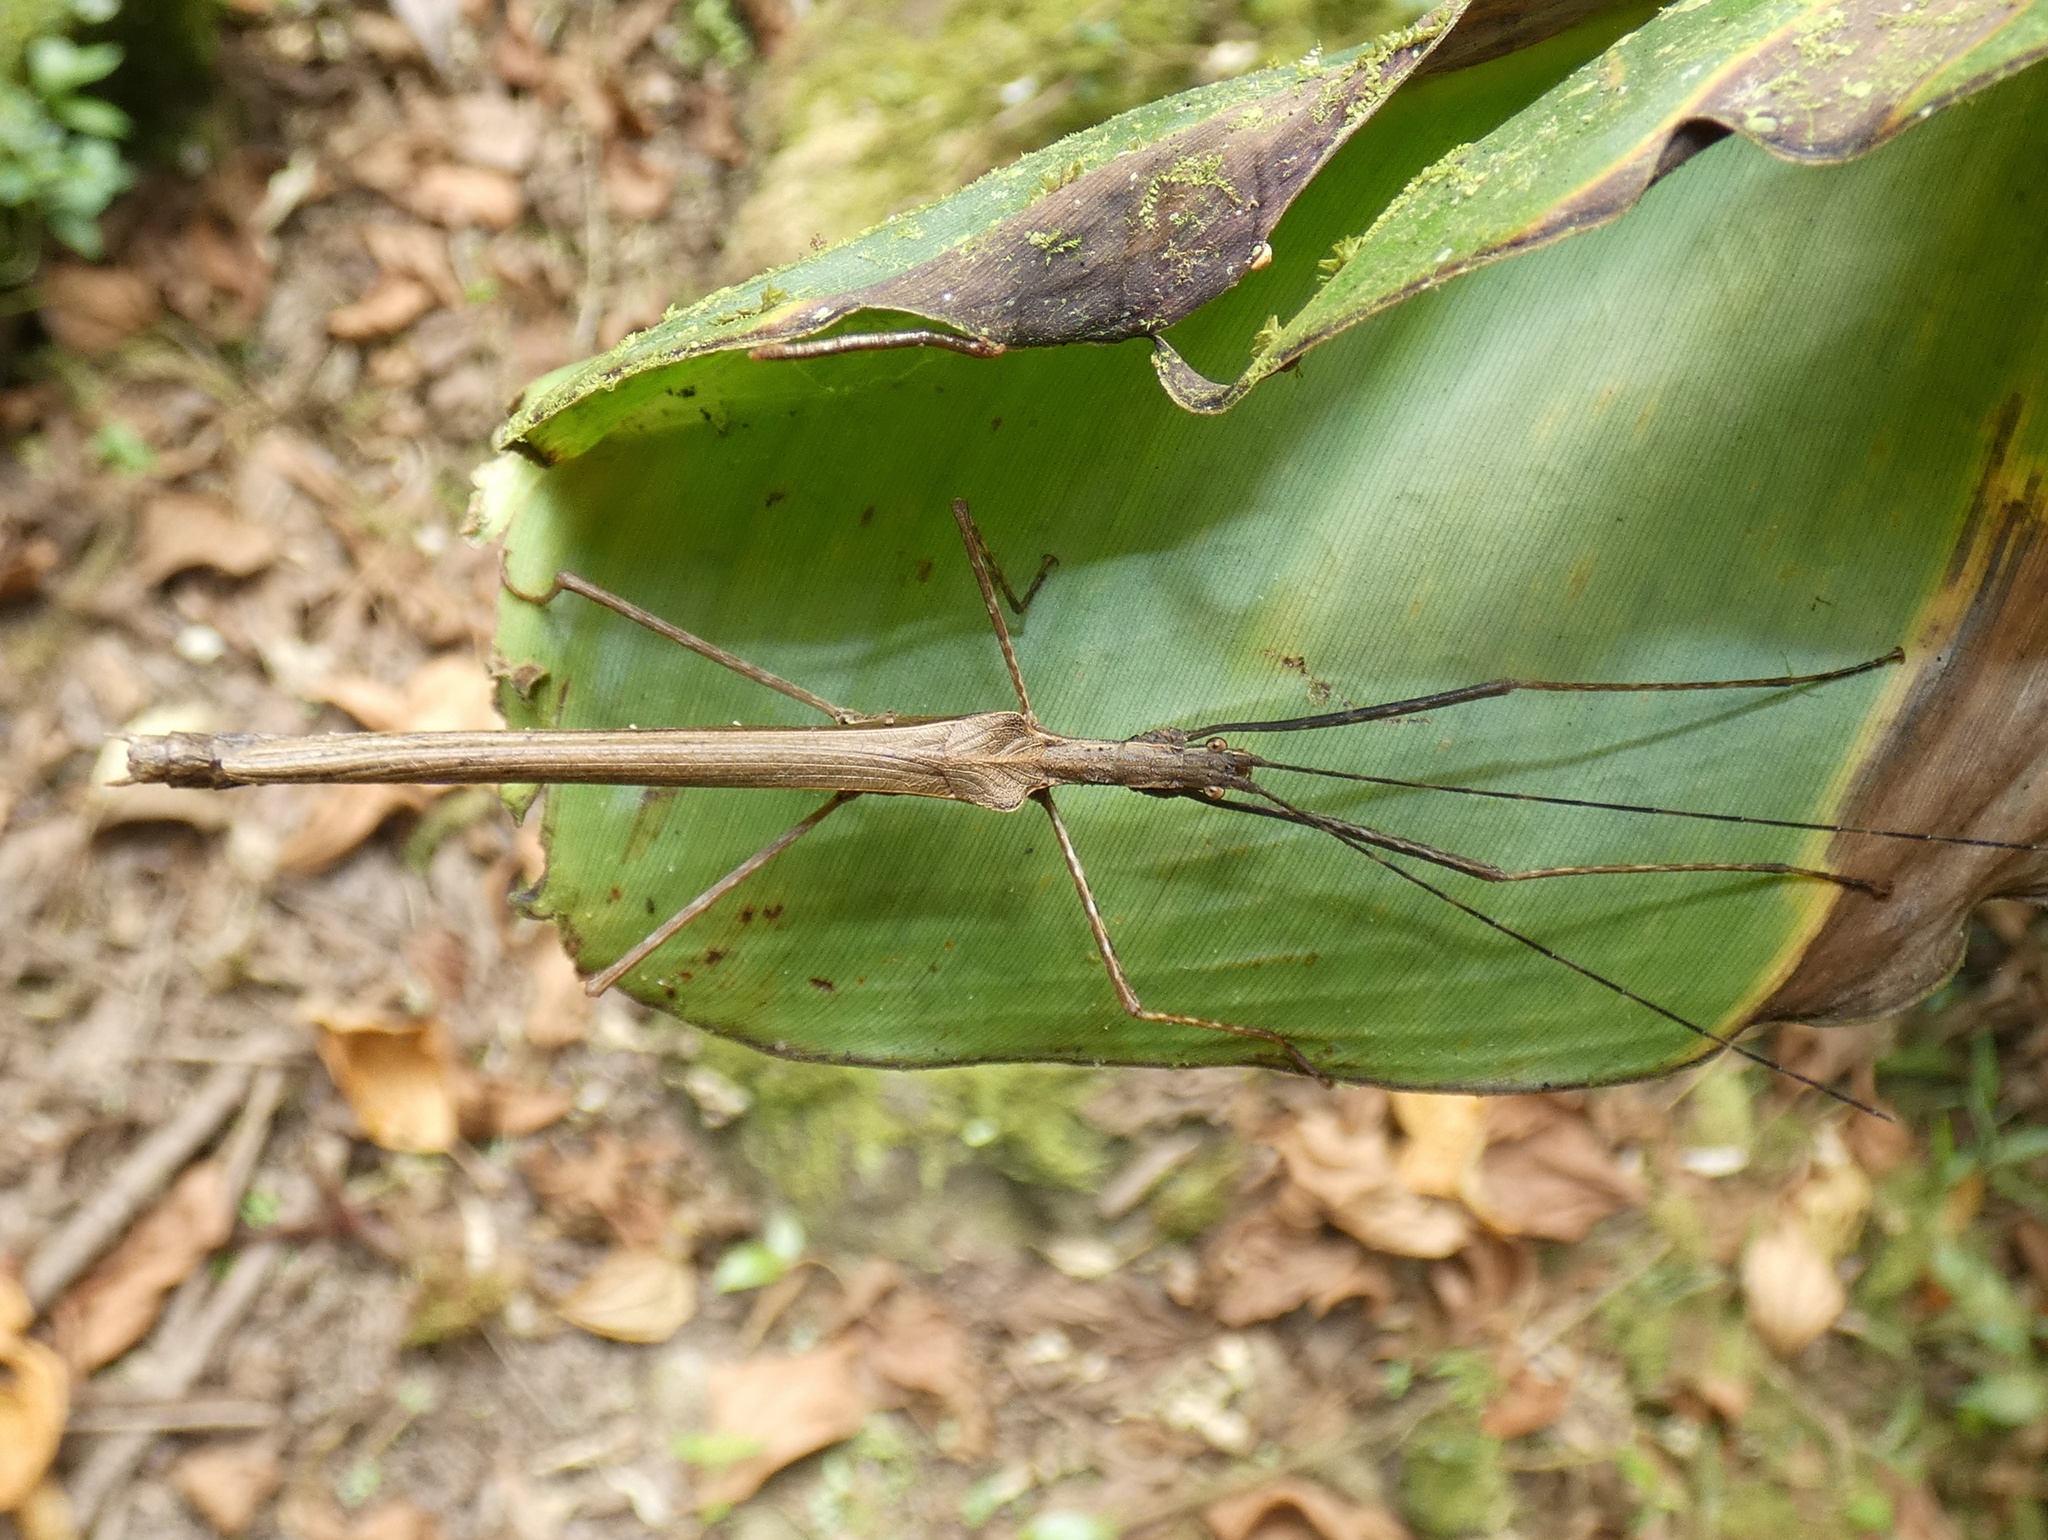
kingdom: Animalia
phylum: Arthropoda
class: Insecta
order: Phasmida
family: Pseudophasmatidae
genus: Pseudophasma
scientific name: Pseudophasma unicolor
